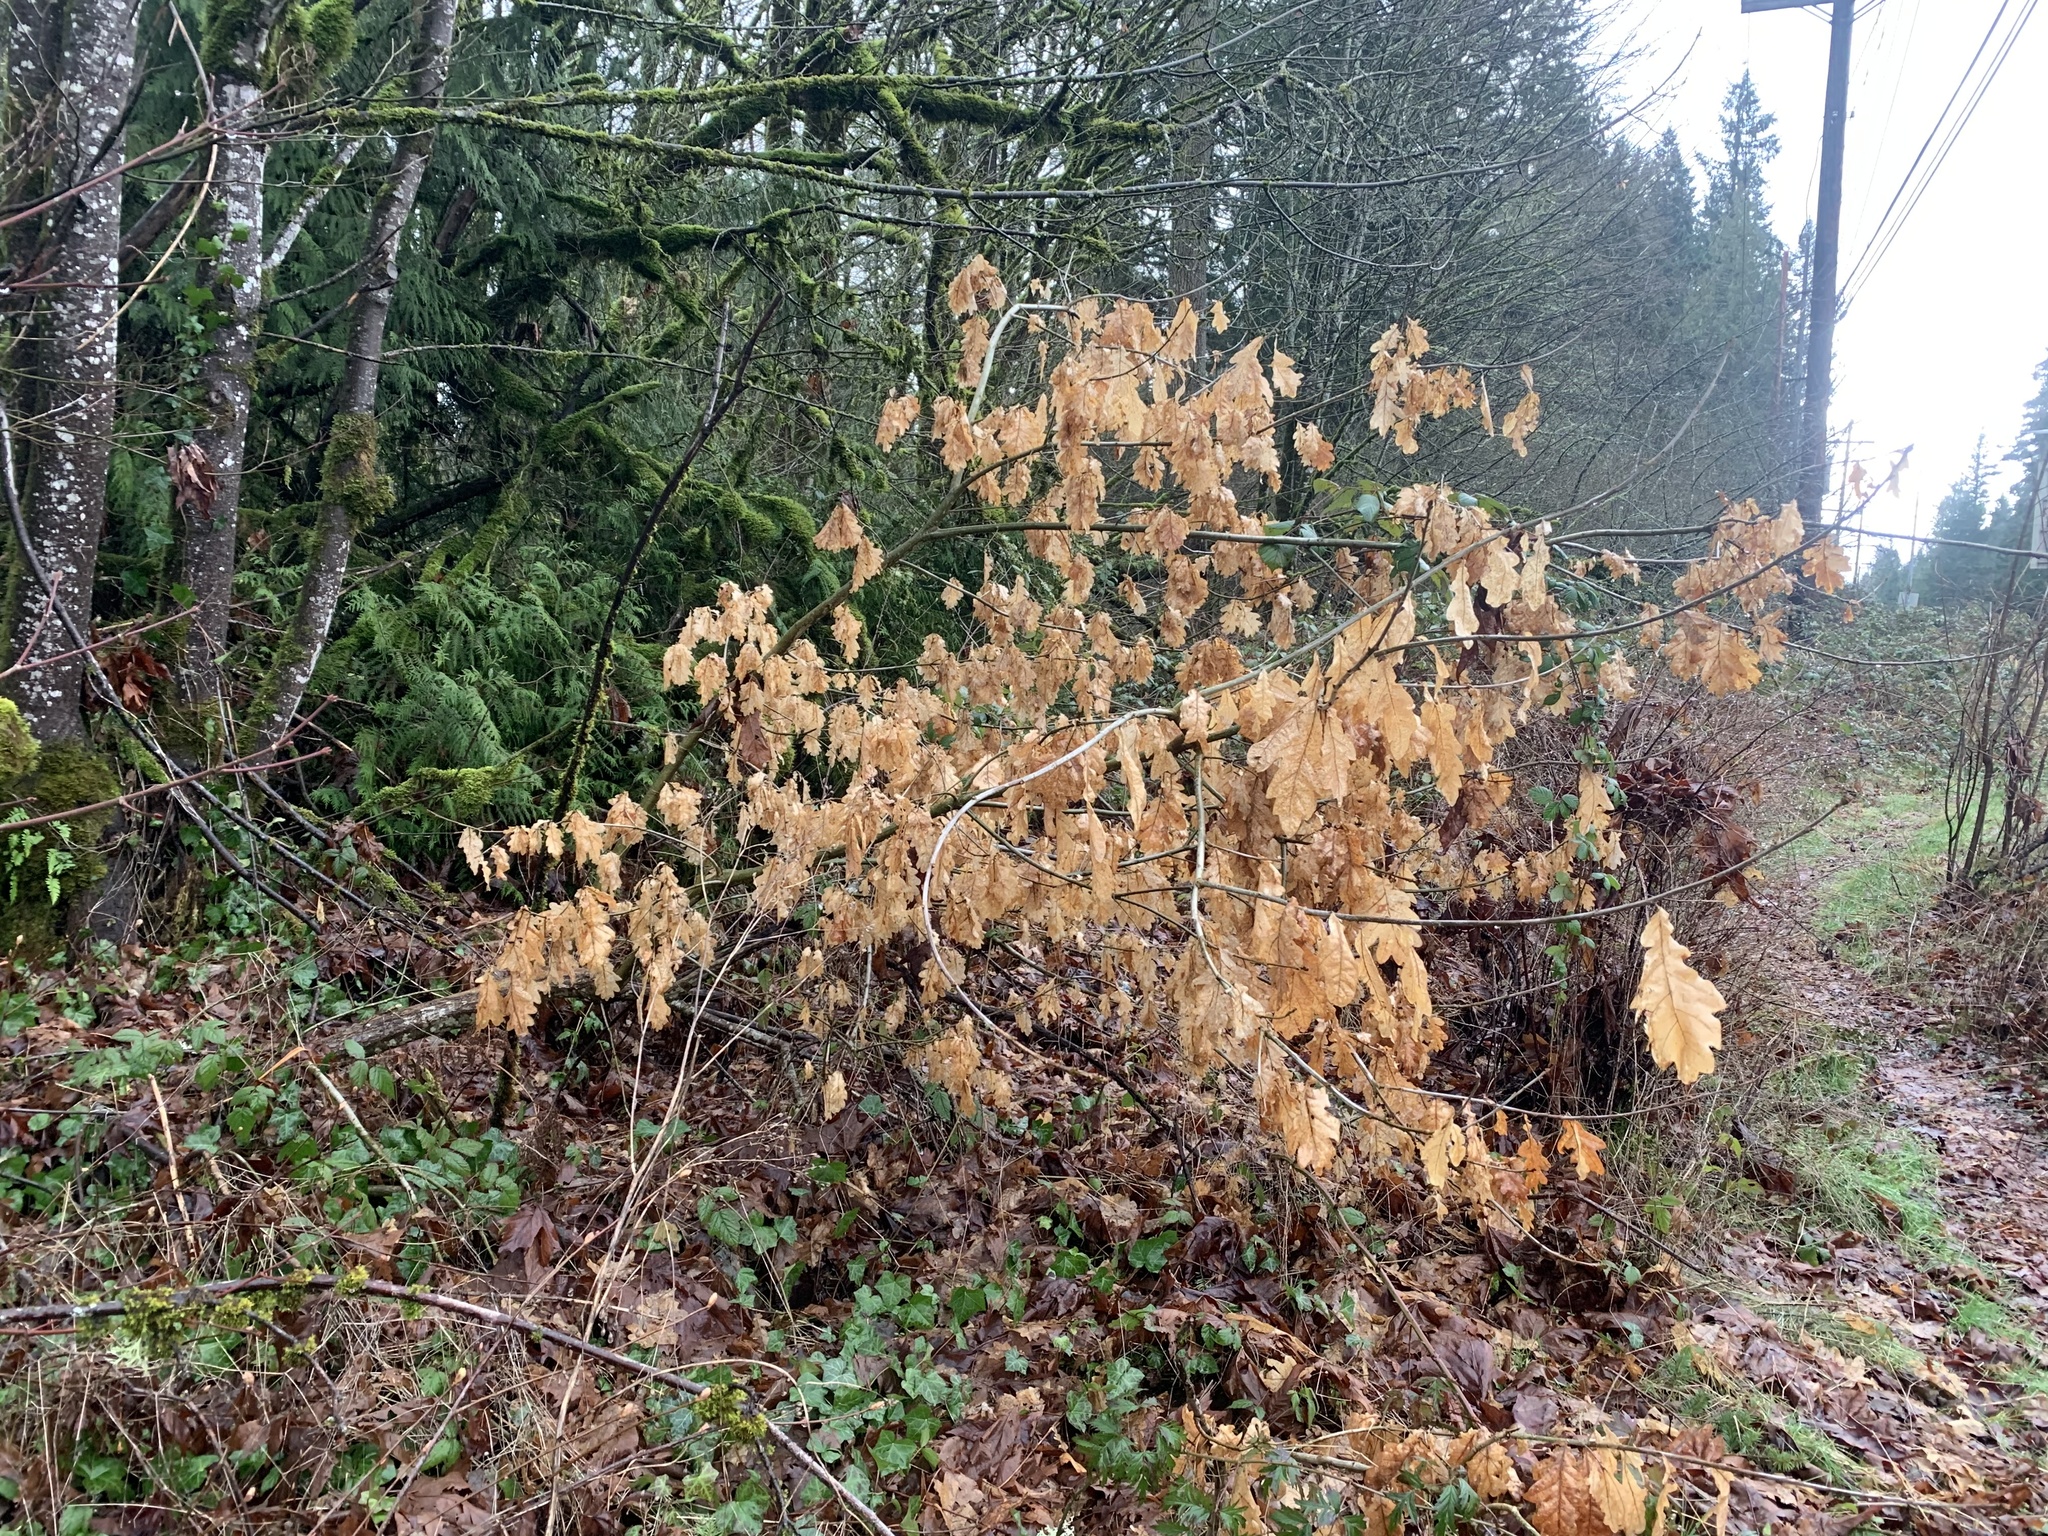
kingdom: Plantae
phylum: Tracheophyta
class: Magnoliopsida
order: Fagales
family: Fagaceae
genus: Quercus
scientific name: Quercus robur
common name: Pedunculate oak
